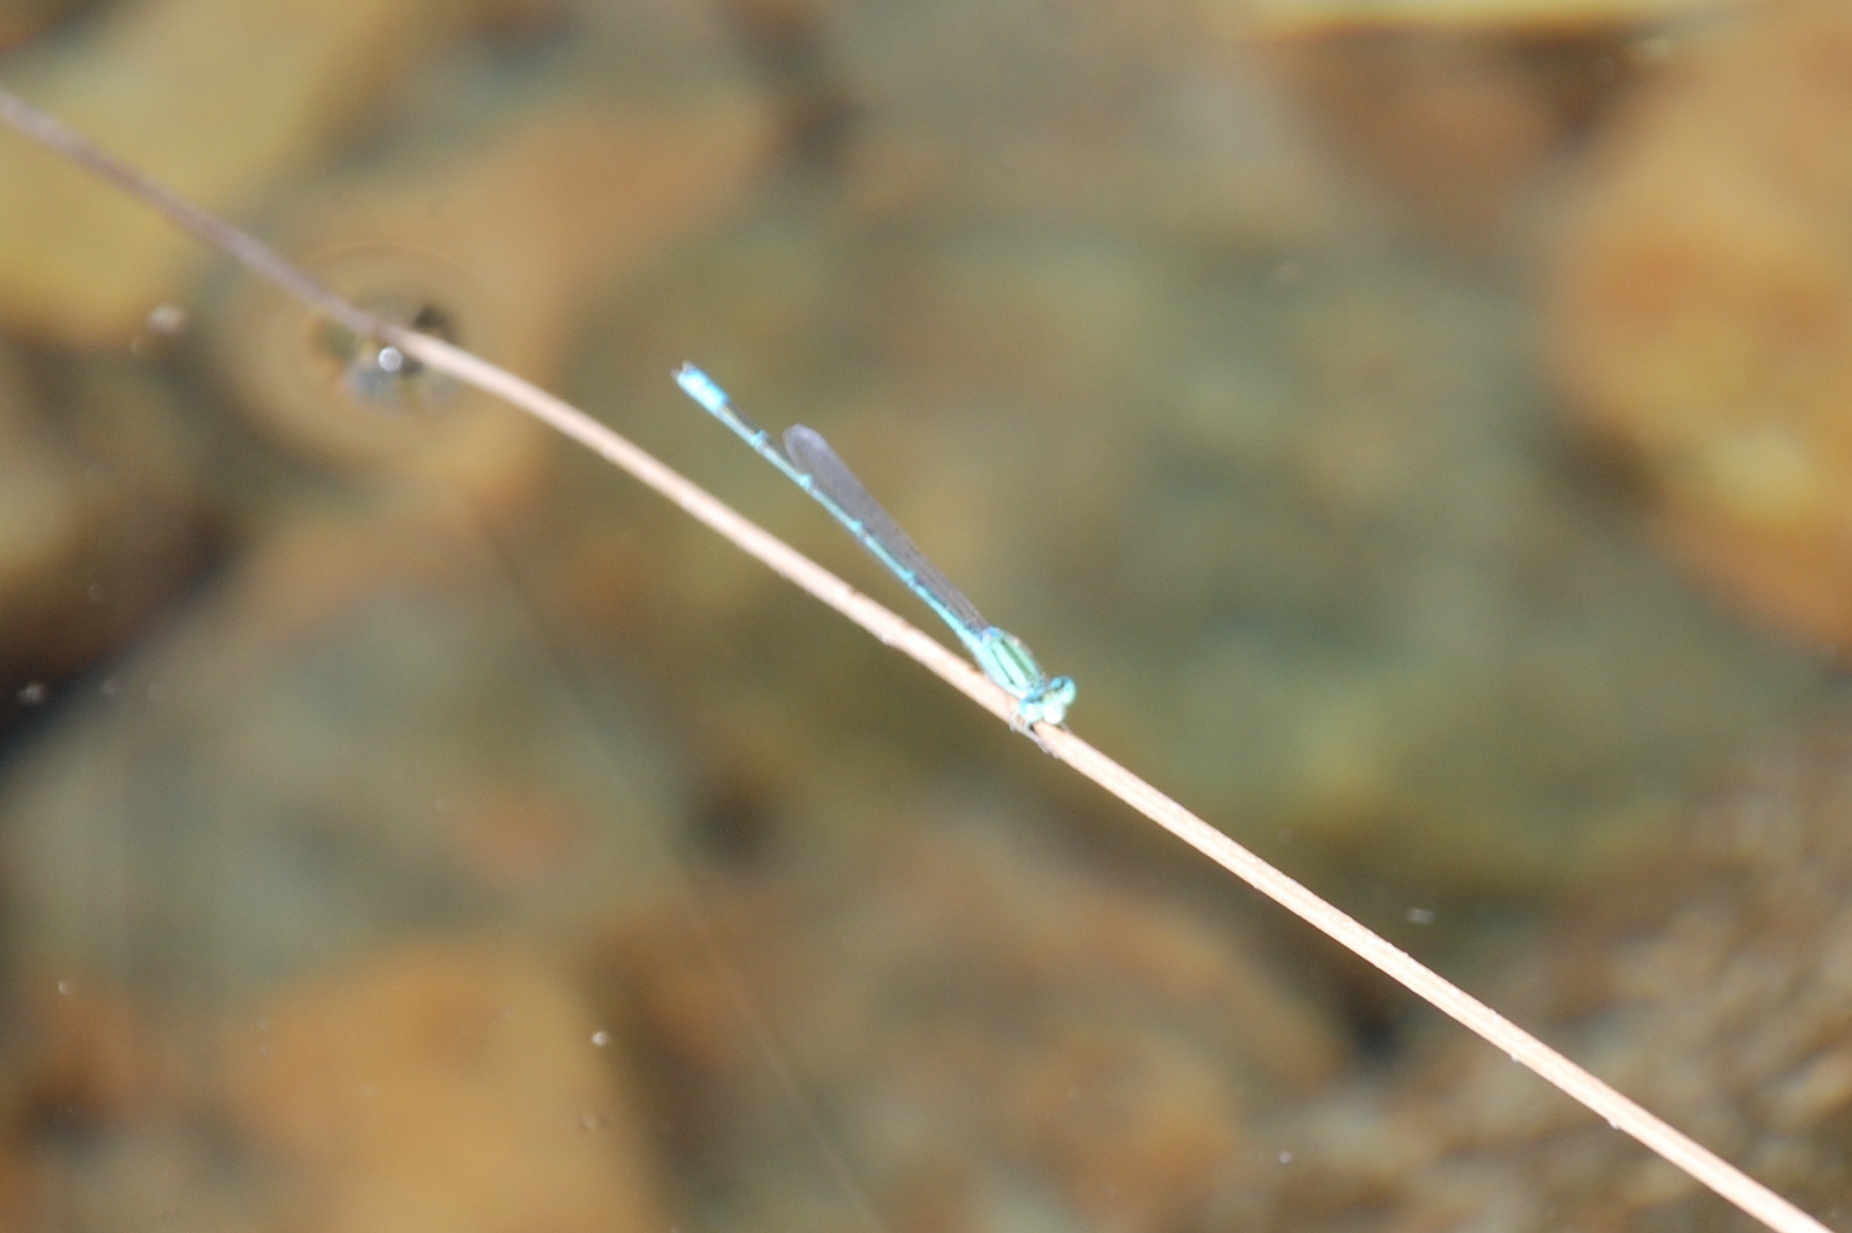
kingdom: Animalia
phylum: Arthropoda
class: Insecta
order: Odonata
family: Coenagrionidae
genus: Pseudagrion
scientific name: Pseudagrion decorum
